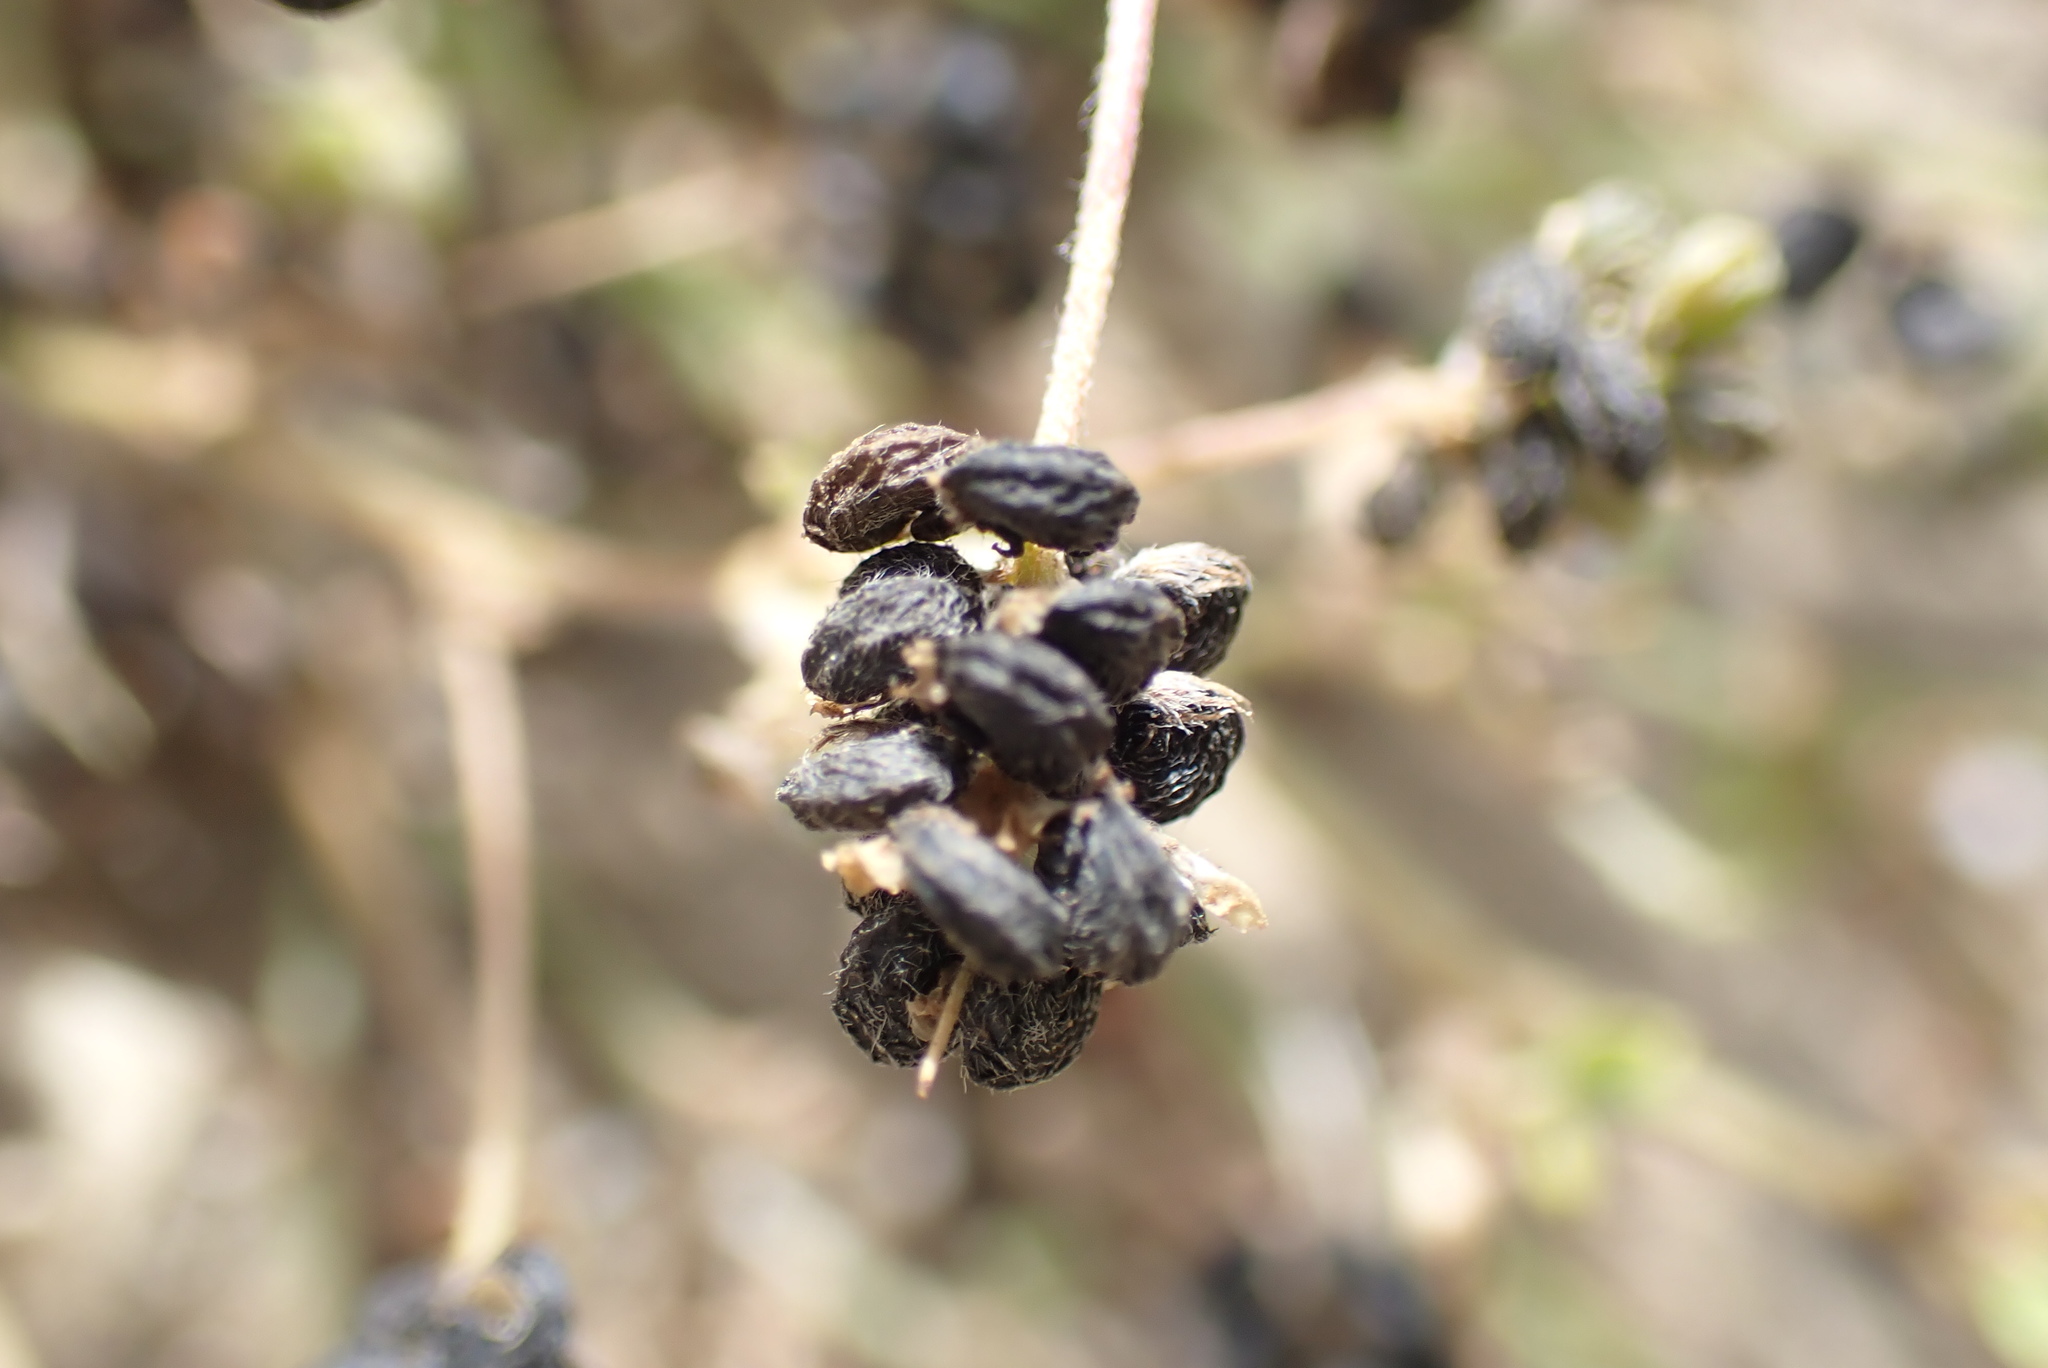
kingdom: Plantae
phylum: Tracheophyta
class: Magnoliopsida
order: Fabales
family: Fabaceae
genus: Medicago
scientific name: Medicago lupulina
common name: Black medick
